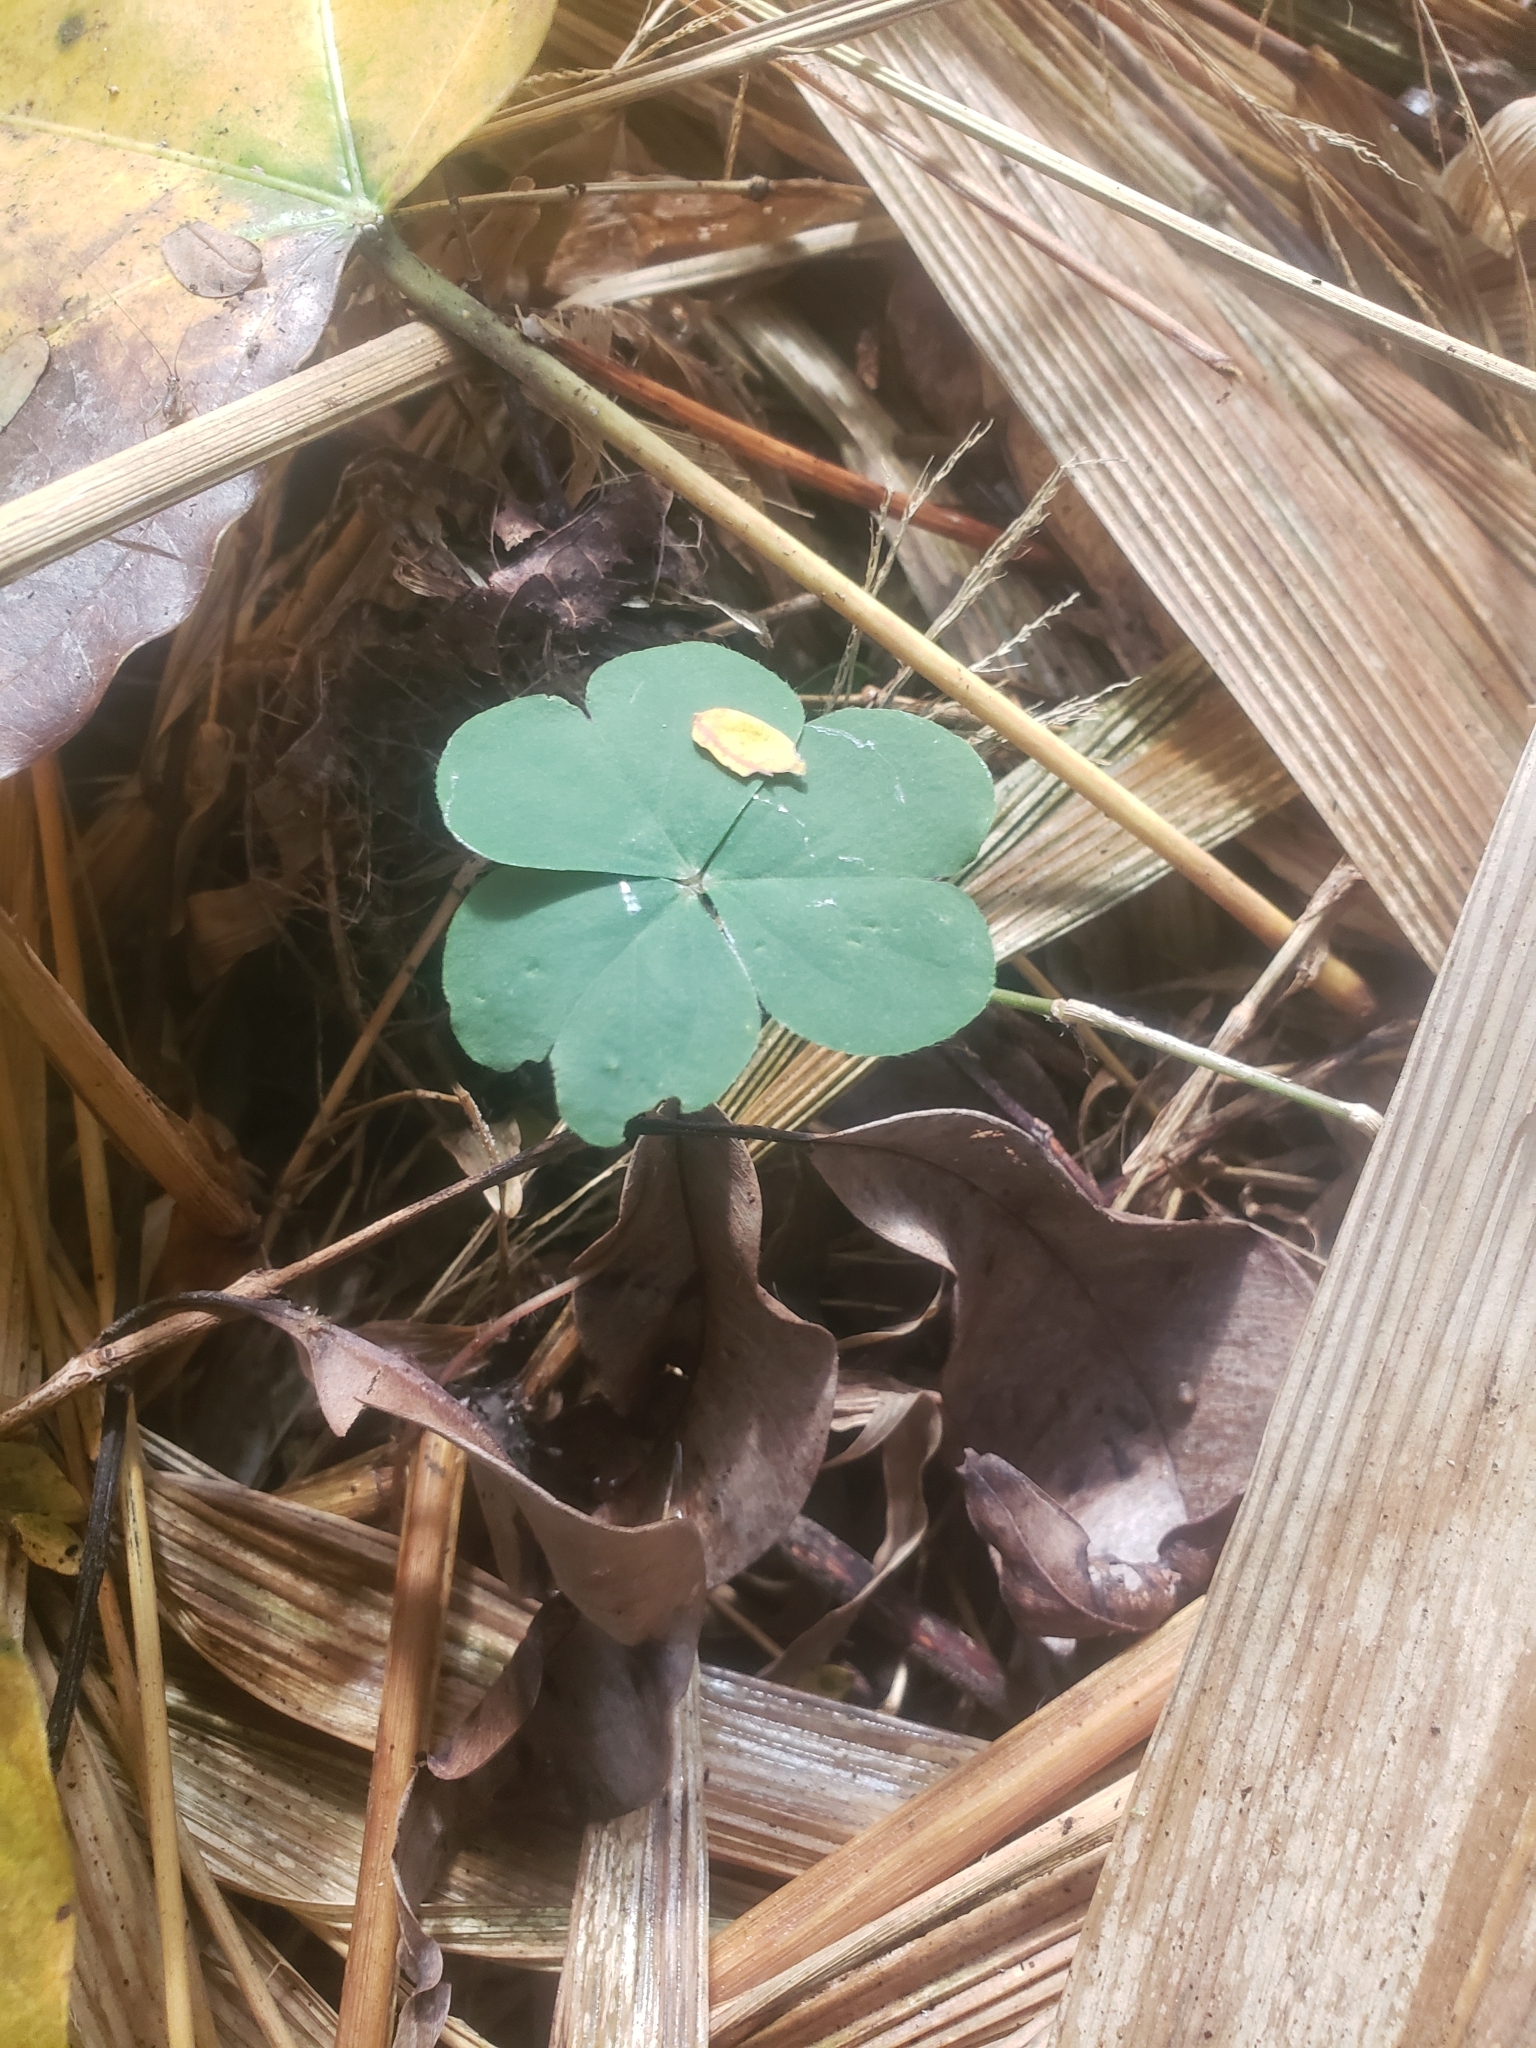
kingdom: Plantae
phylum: Tracheophyta
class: Magnoliopsida
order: Oxalidales
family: Oxalidaceae
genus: Oxalis
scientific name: Oxalis debilis
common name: Large-flowered pink-sorrel
